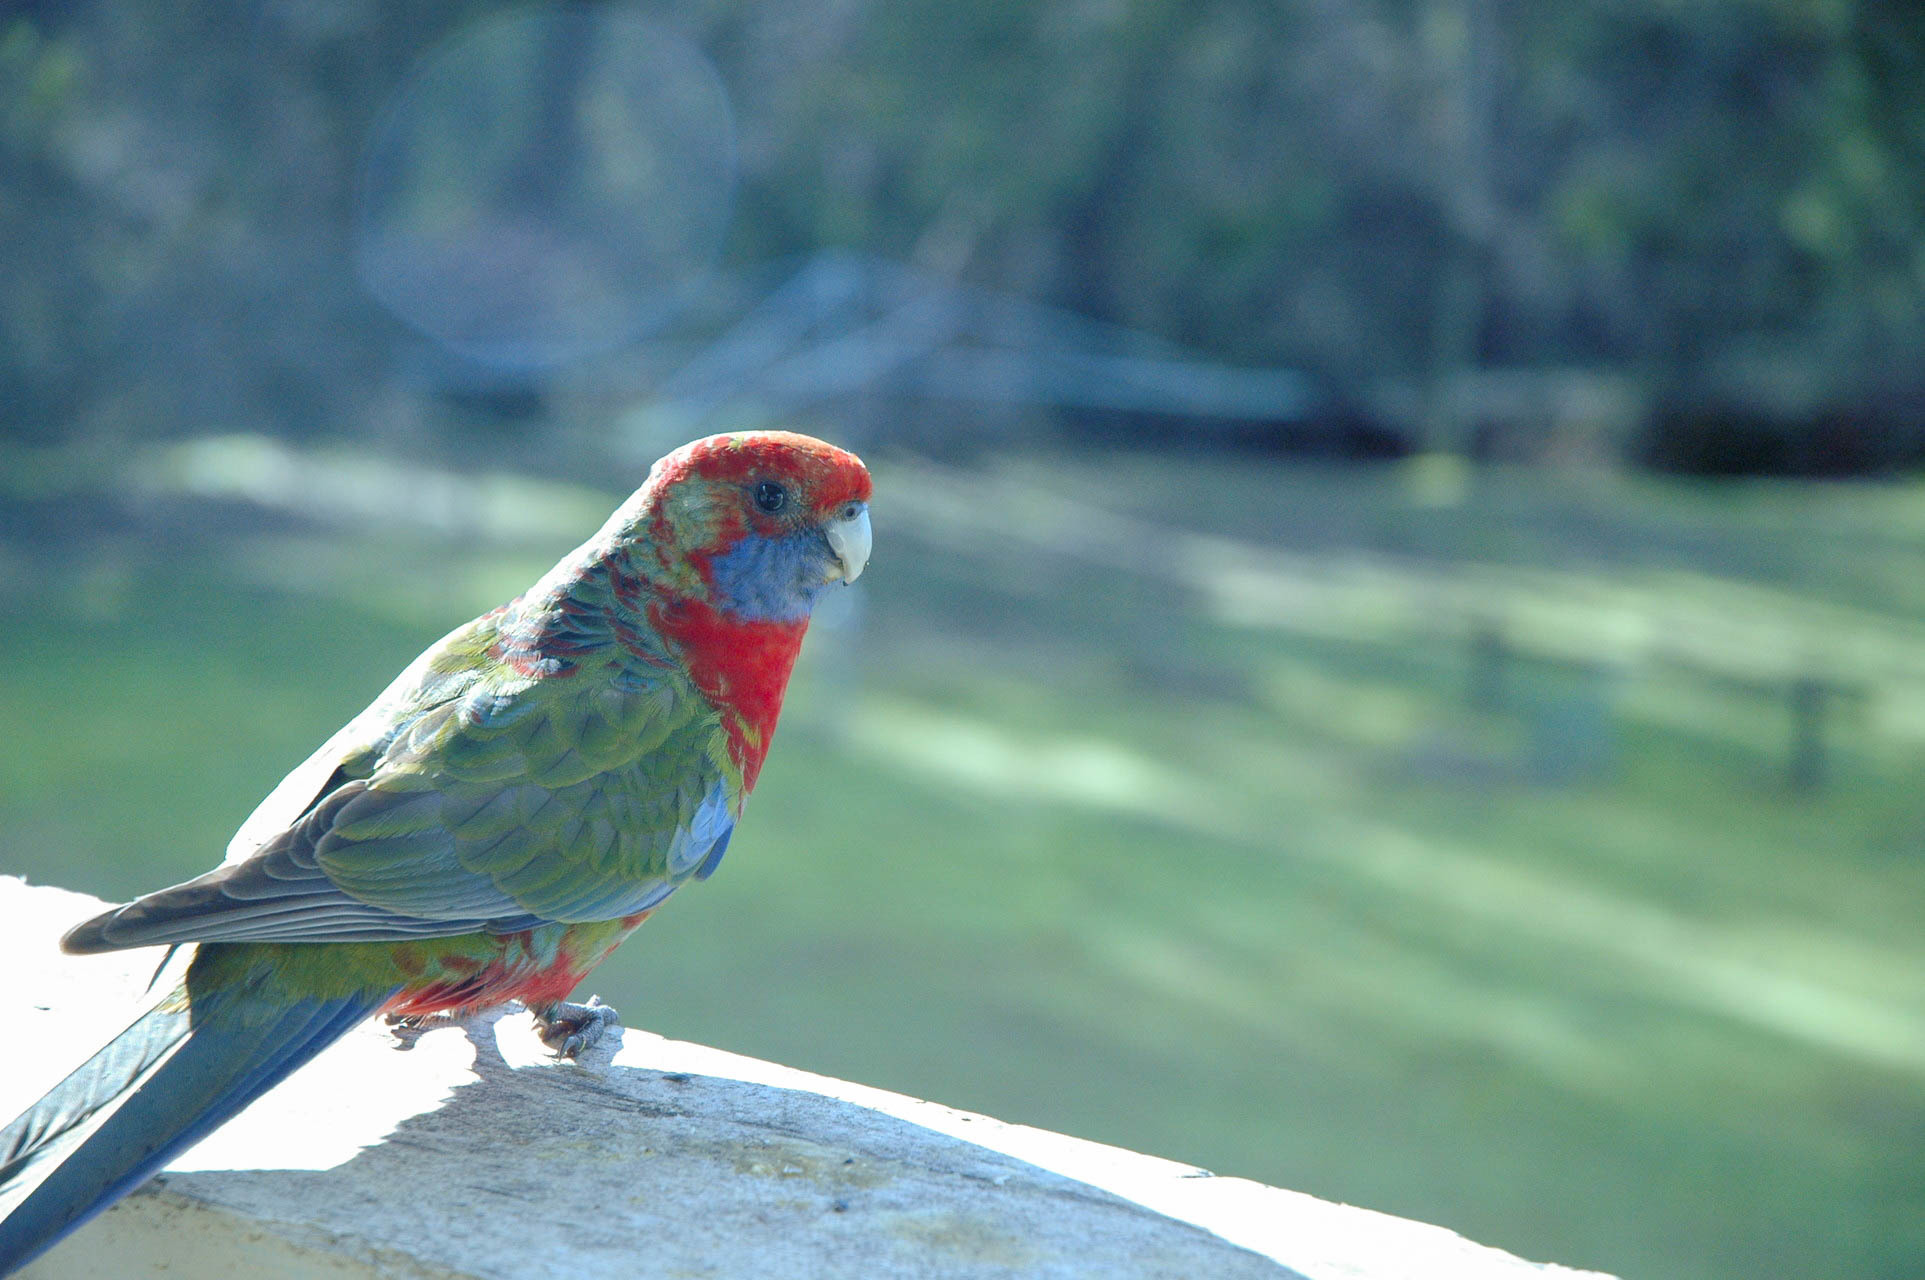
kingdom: Animalia
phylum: Chordata
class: Aves
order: Psittaciformes
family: Psittacidae
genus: Platycercus
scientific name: Platycercus elegans
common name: Crimson rosella
